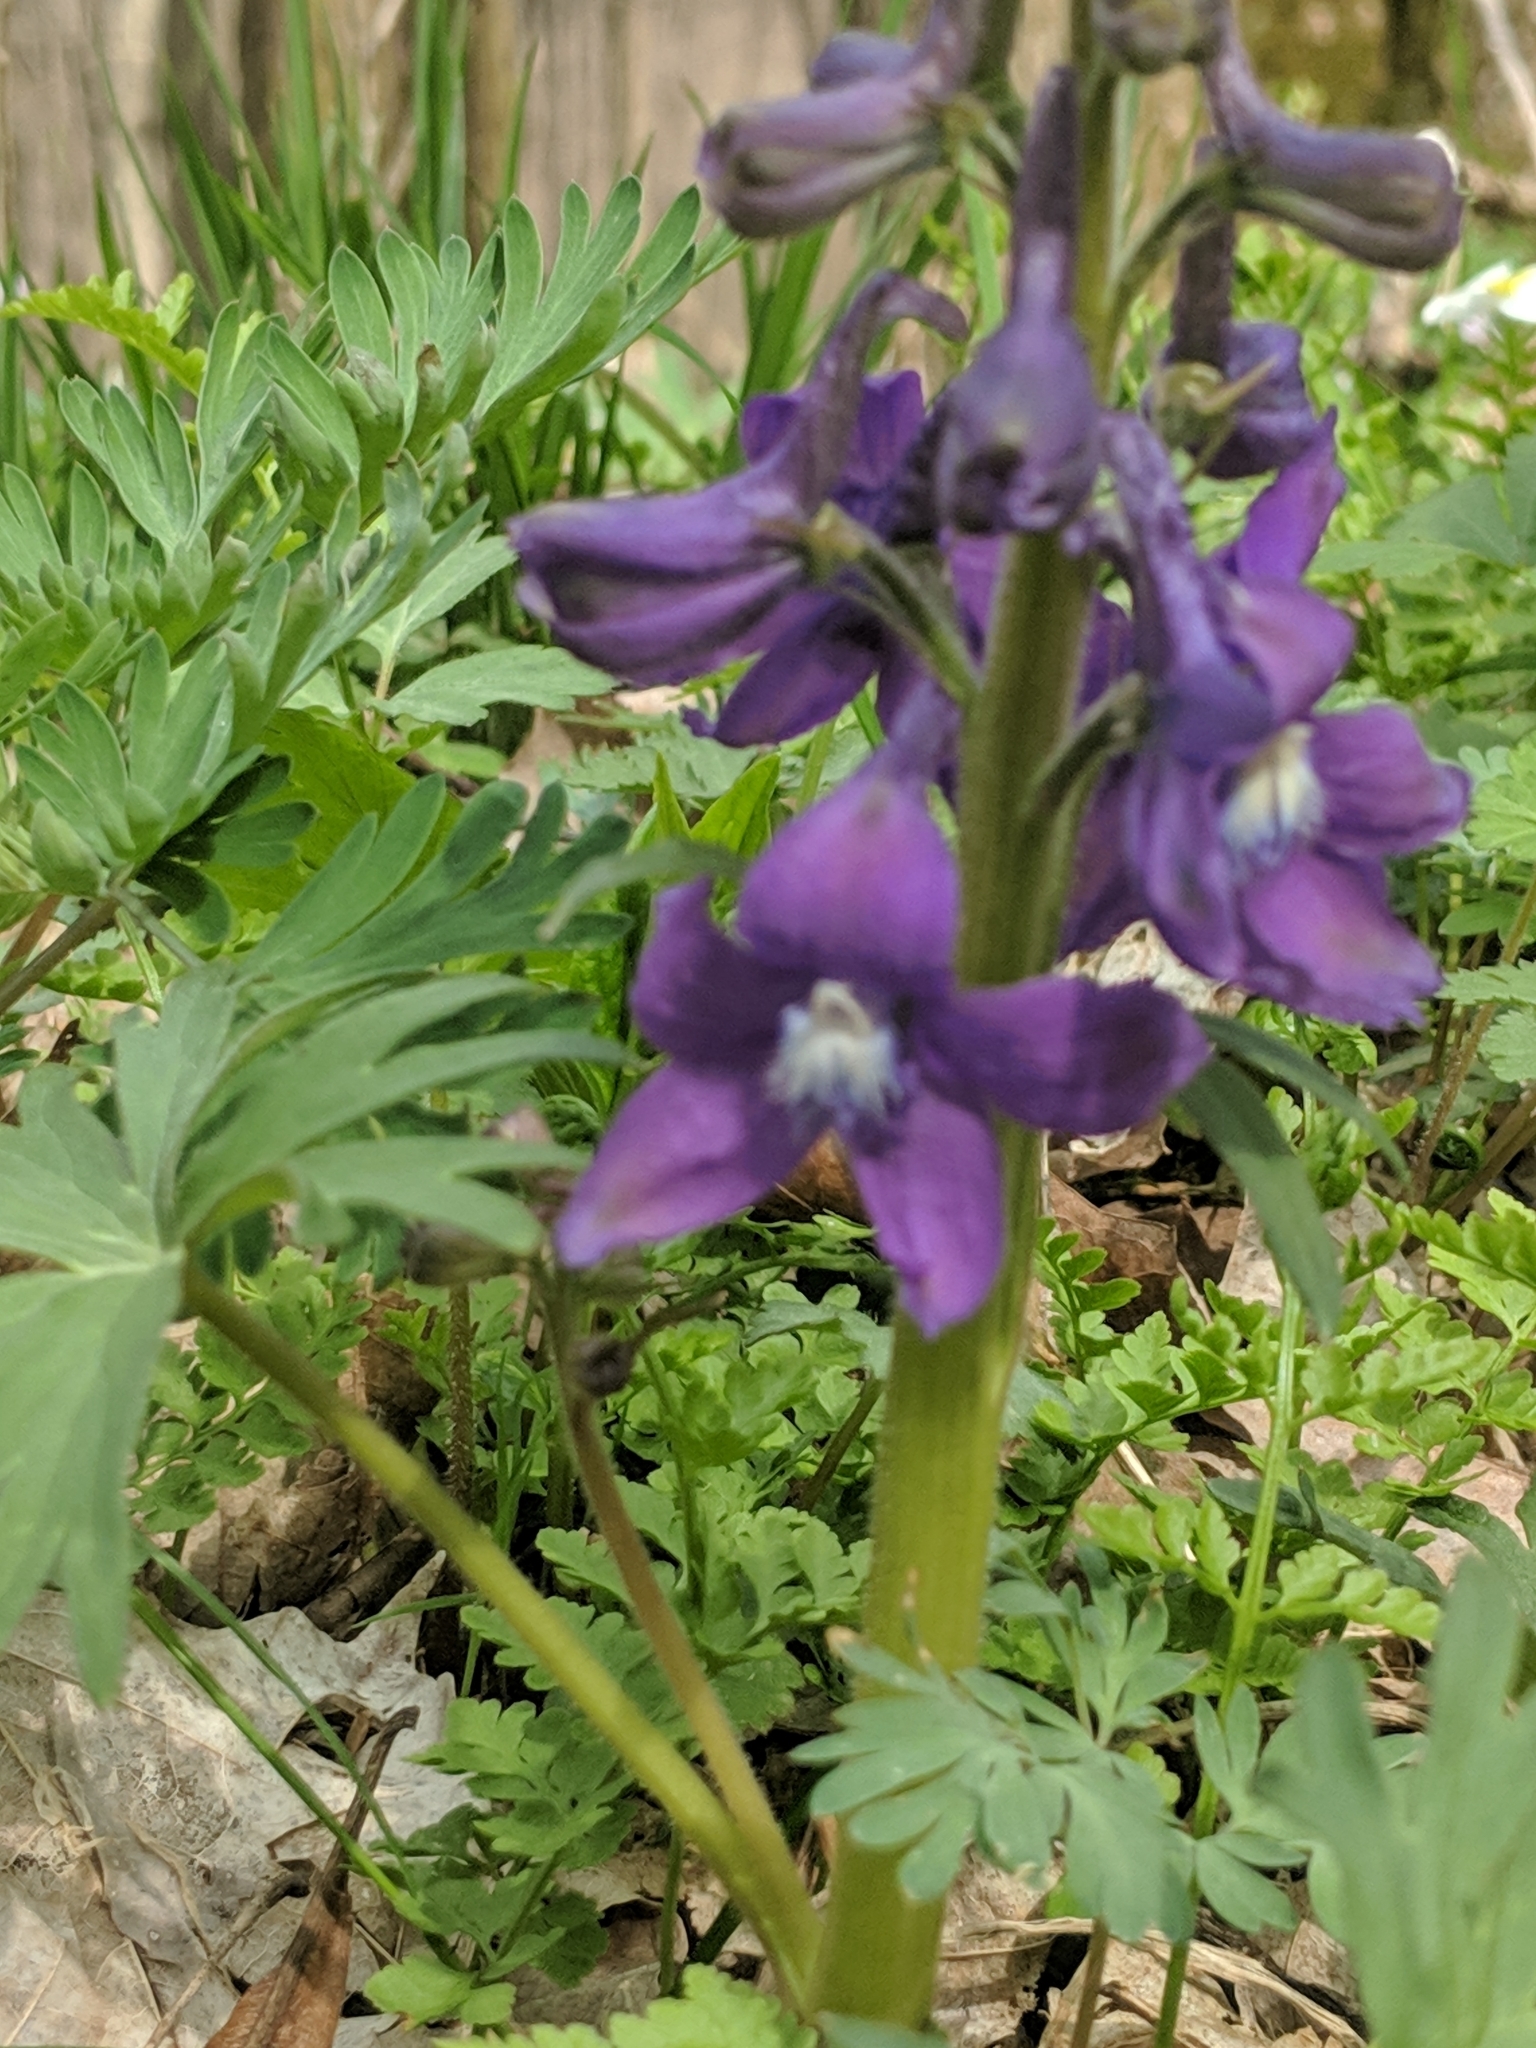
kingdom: Plantae
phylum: Tracheophyta
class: Magnoliopsida
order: Ranunculales
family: Ranunculaceae
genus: Delphinium
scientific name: Delphinium tricorne
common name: Dwarf larkspur
